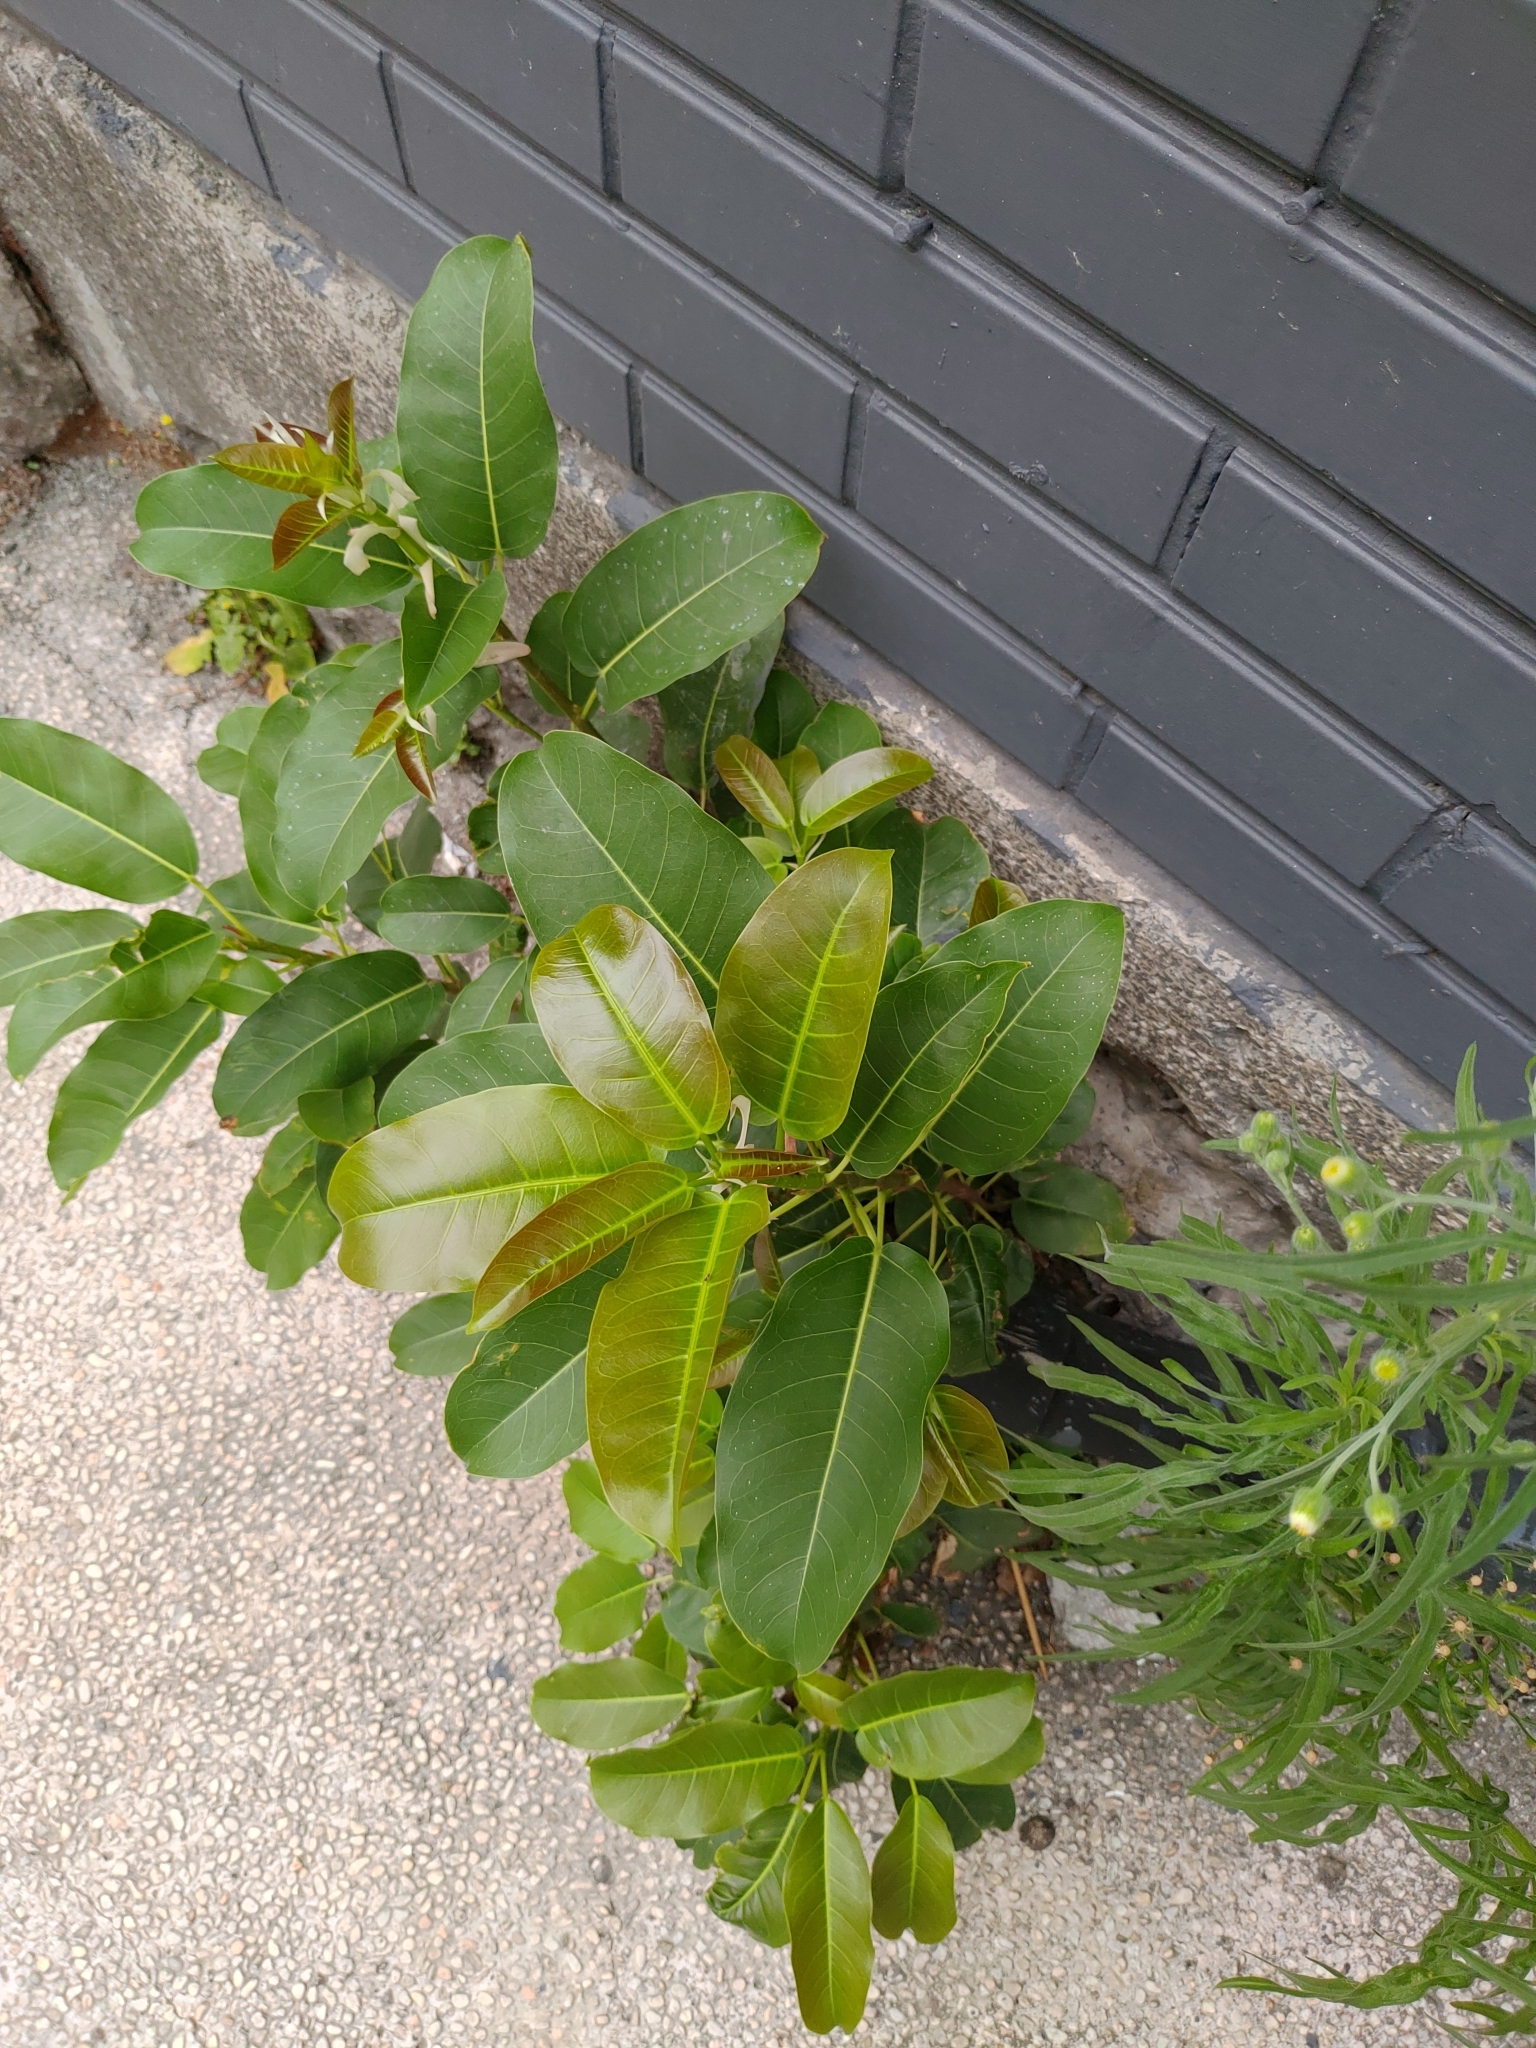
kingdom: Plantae
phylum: Tracheophyta
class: Magnoliopsida
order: Rosales
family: Moraceae
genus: Ficus
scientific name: Ficus subpisocarpa
